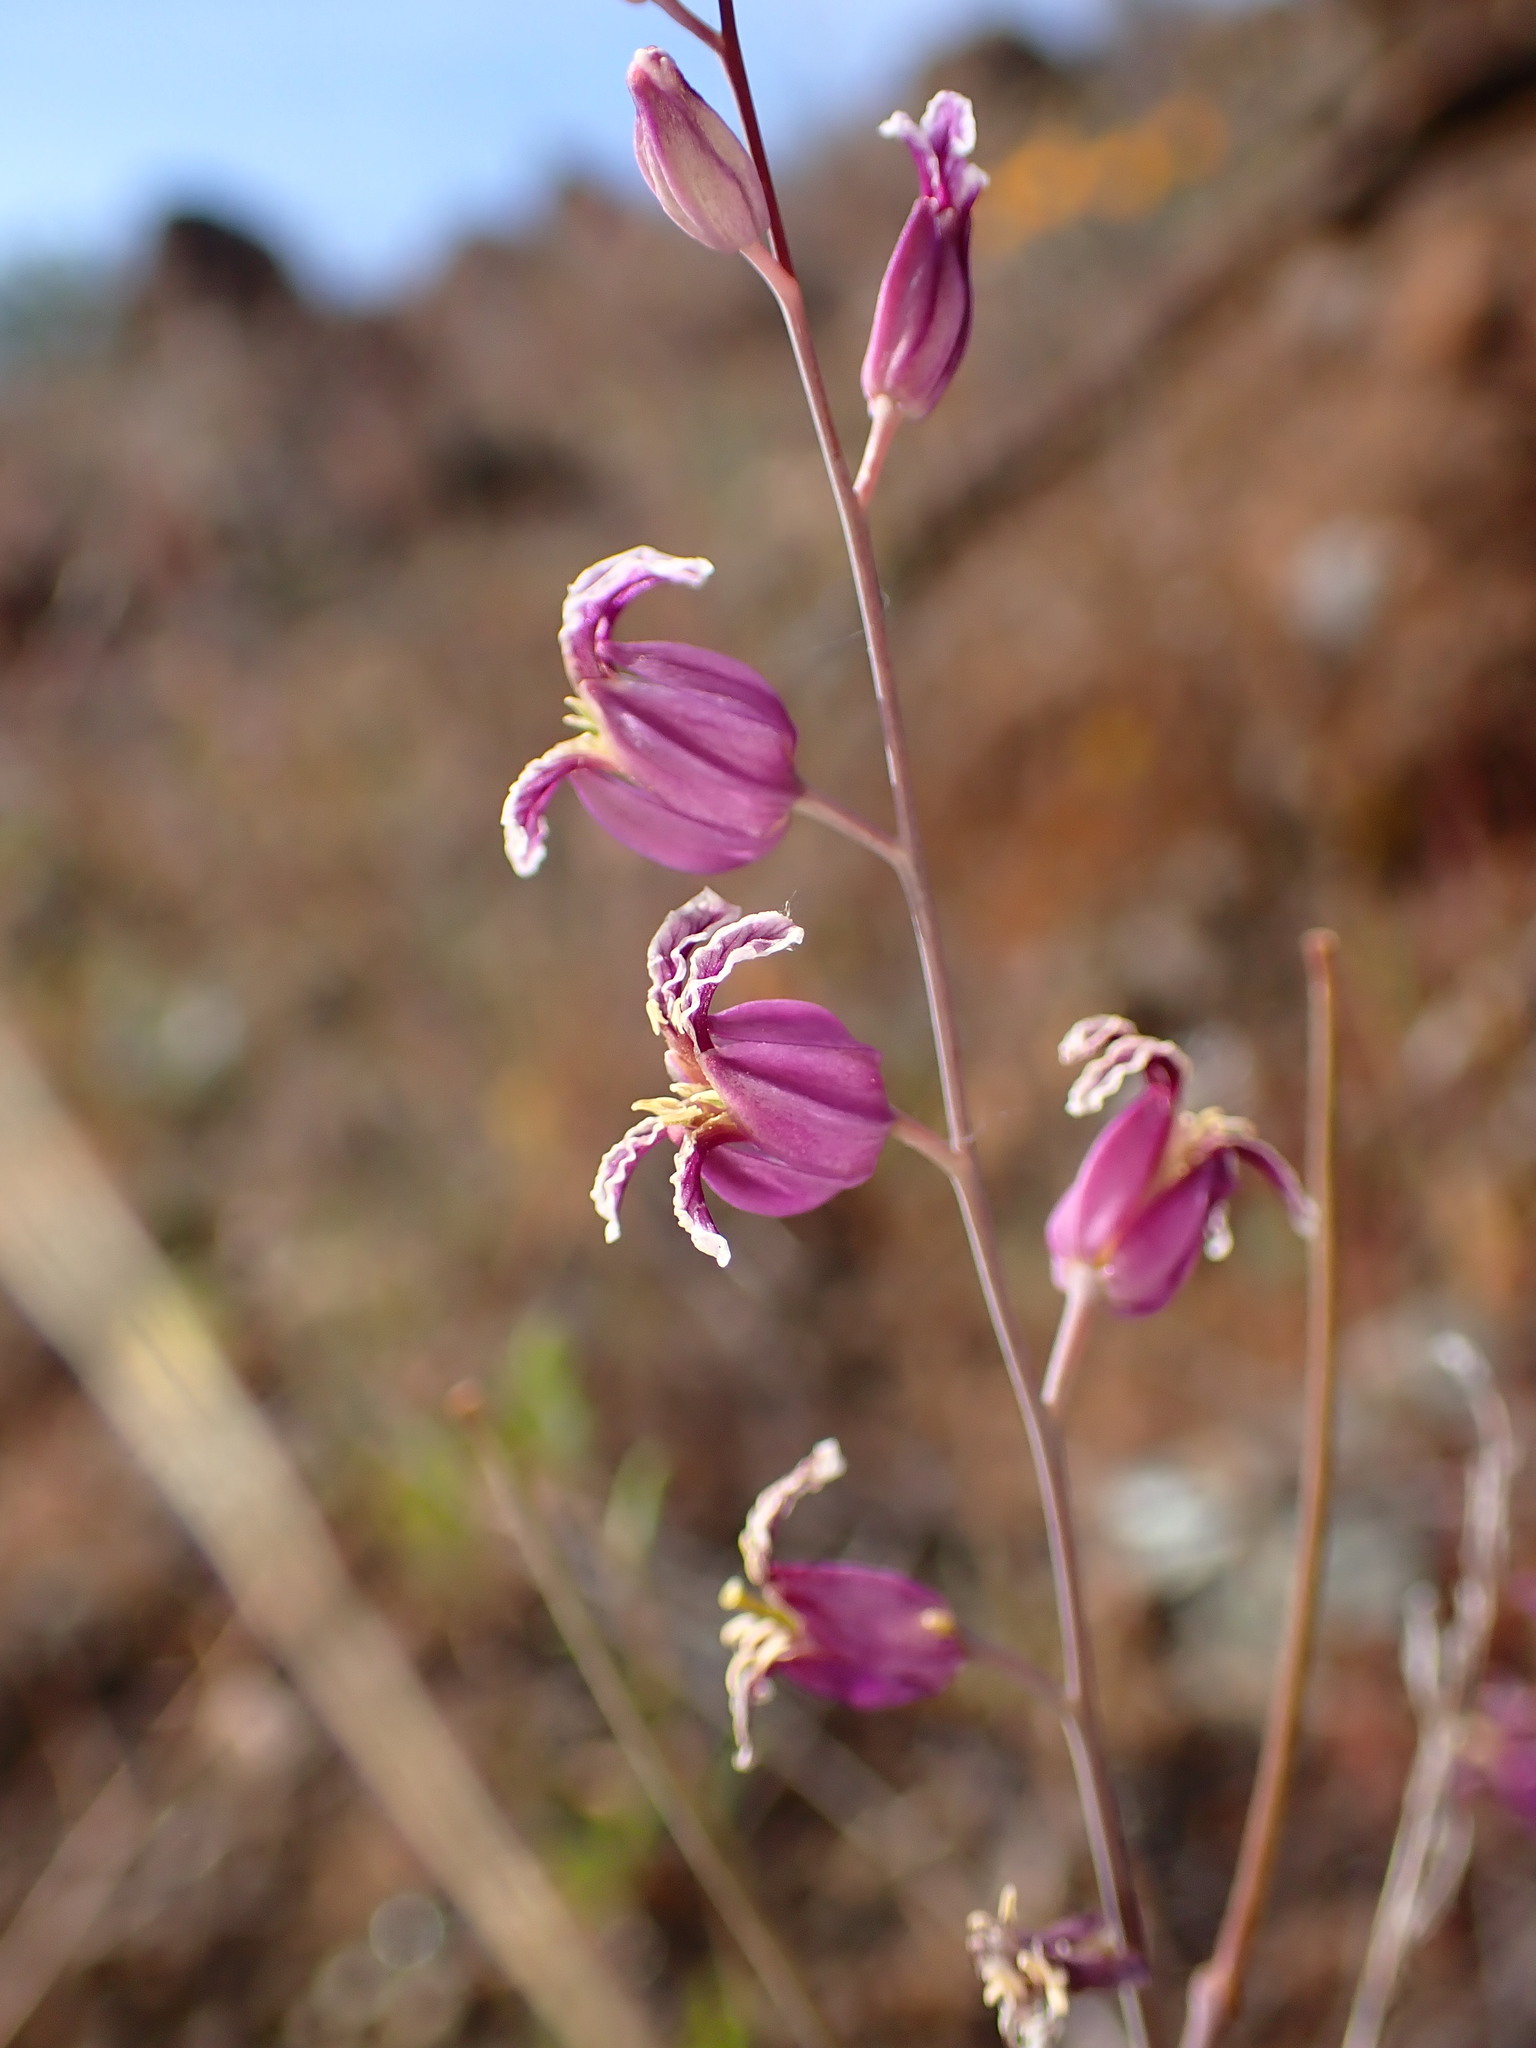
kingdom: Plantae
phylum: Tracheophyta
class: Magnoliopsida
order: Brassicales
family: Brassicaceae
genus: Streptanthus
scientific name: Streptanthus glandulosus
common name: Jewel-flower
